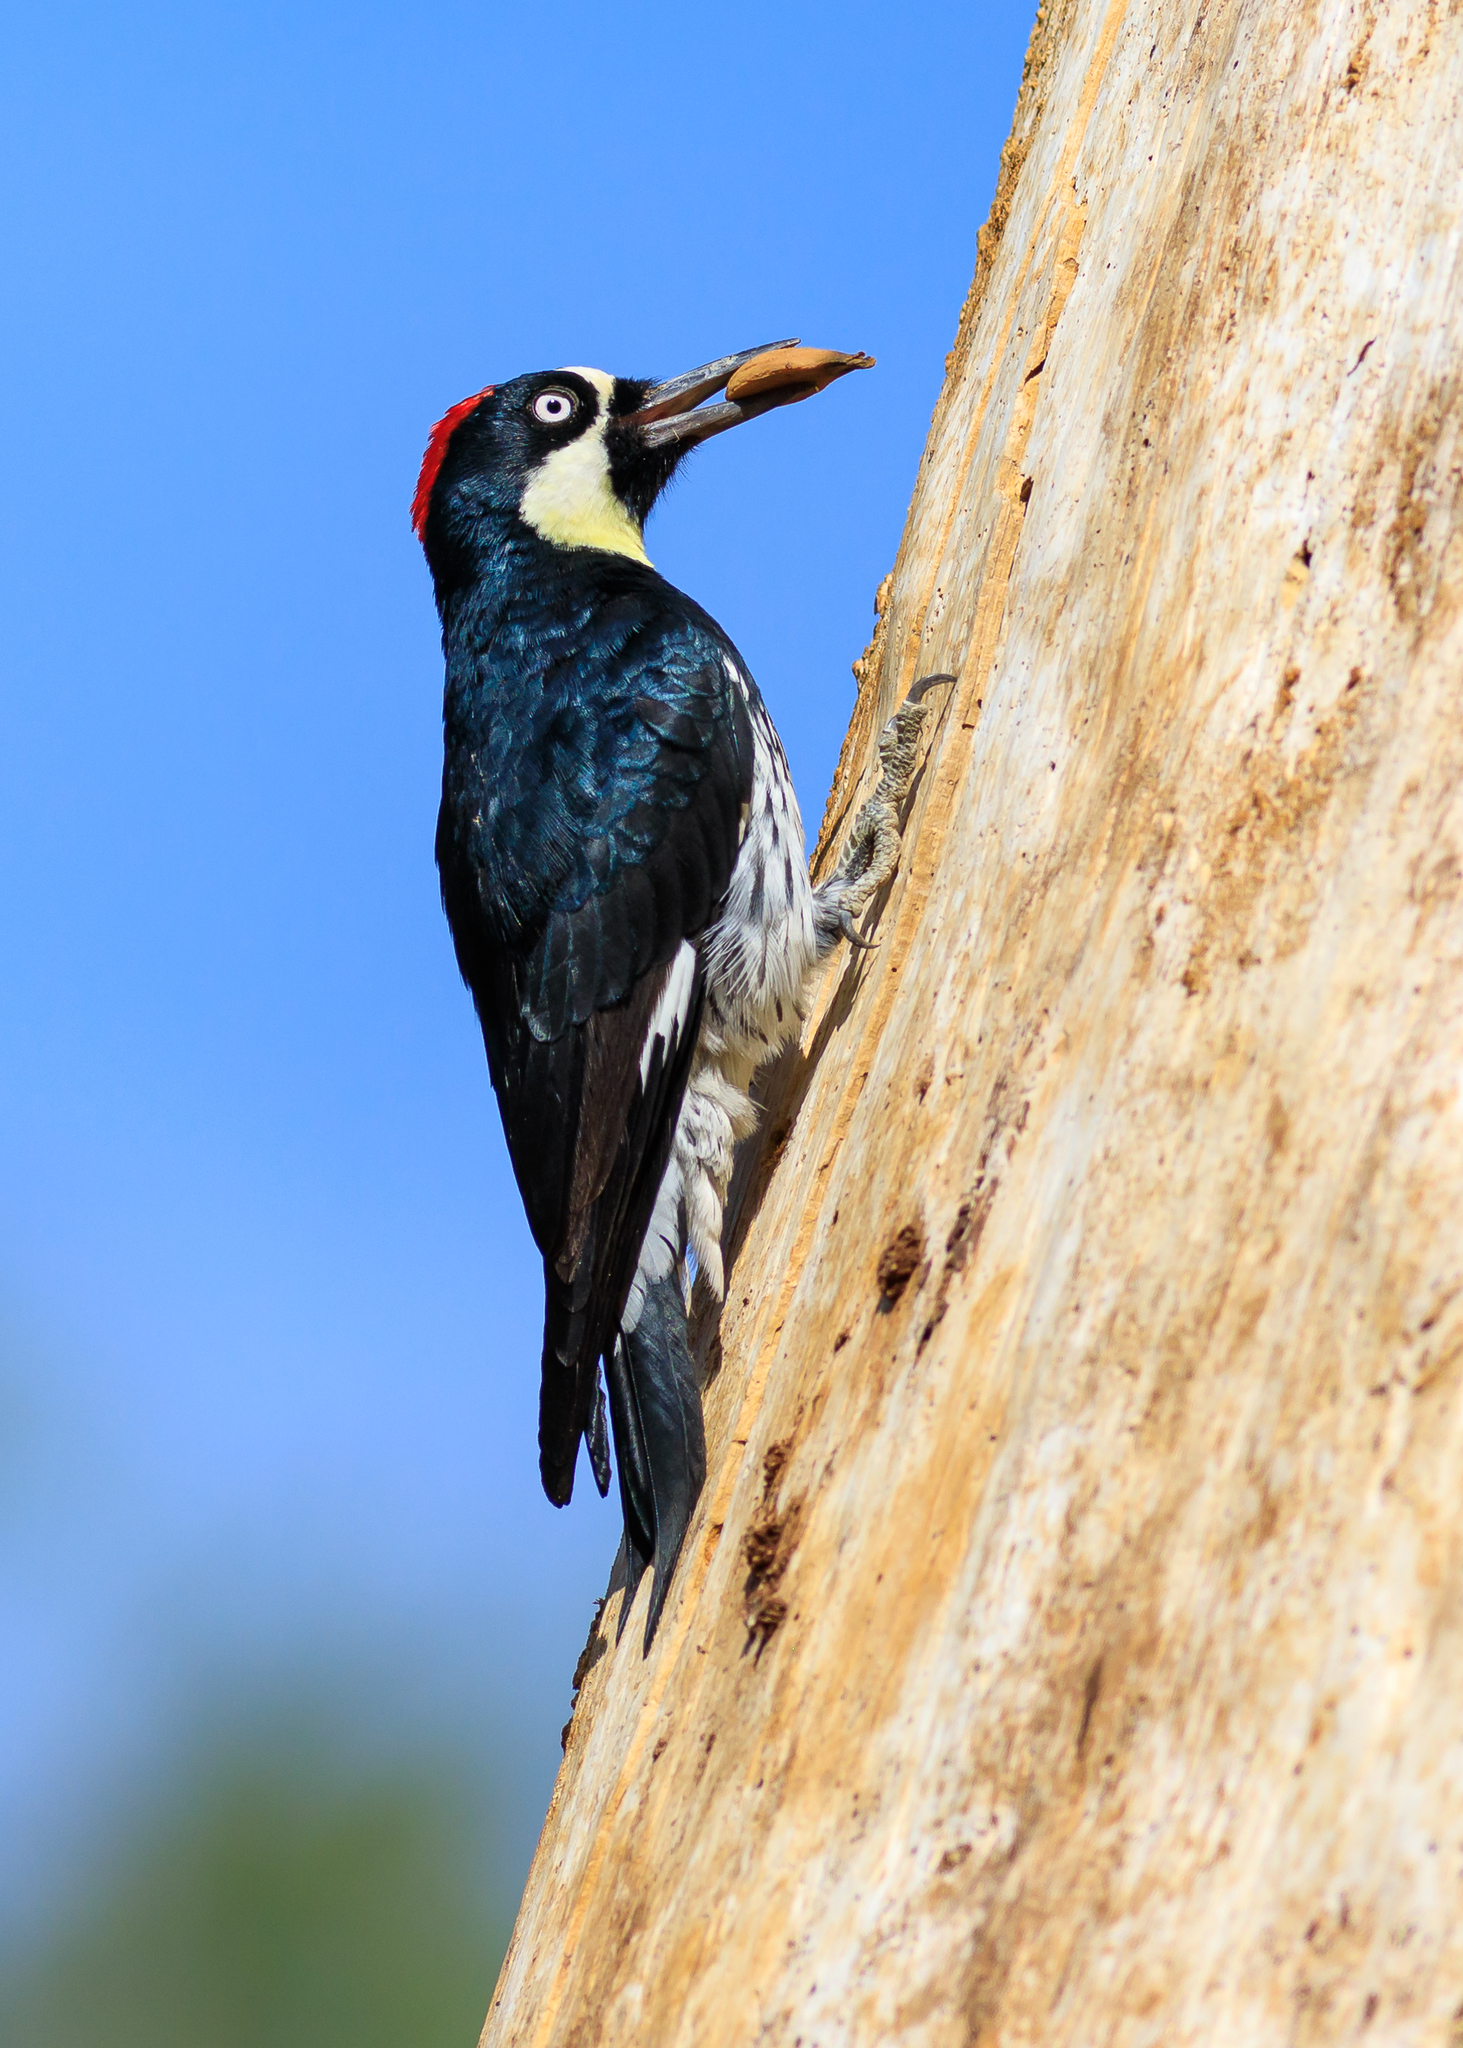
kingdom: Animalia
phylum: Chordata
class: Aves
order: Piciformes
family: Picidae
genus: Melanerpes
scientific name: Melanerpes formicivorus
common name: Acorn woodpecker
